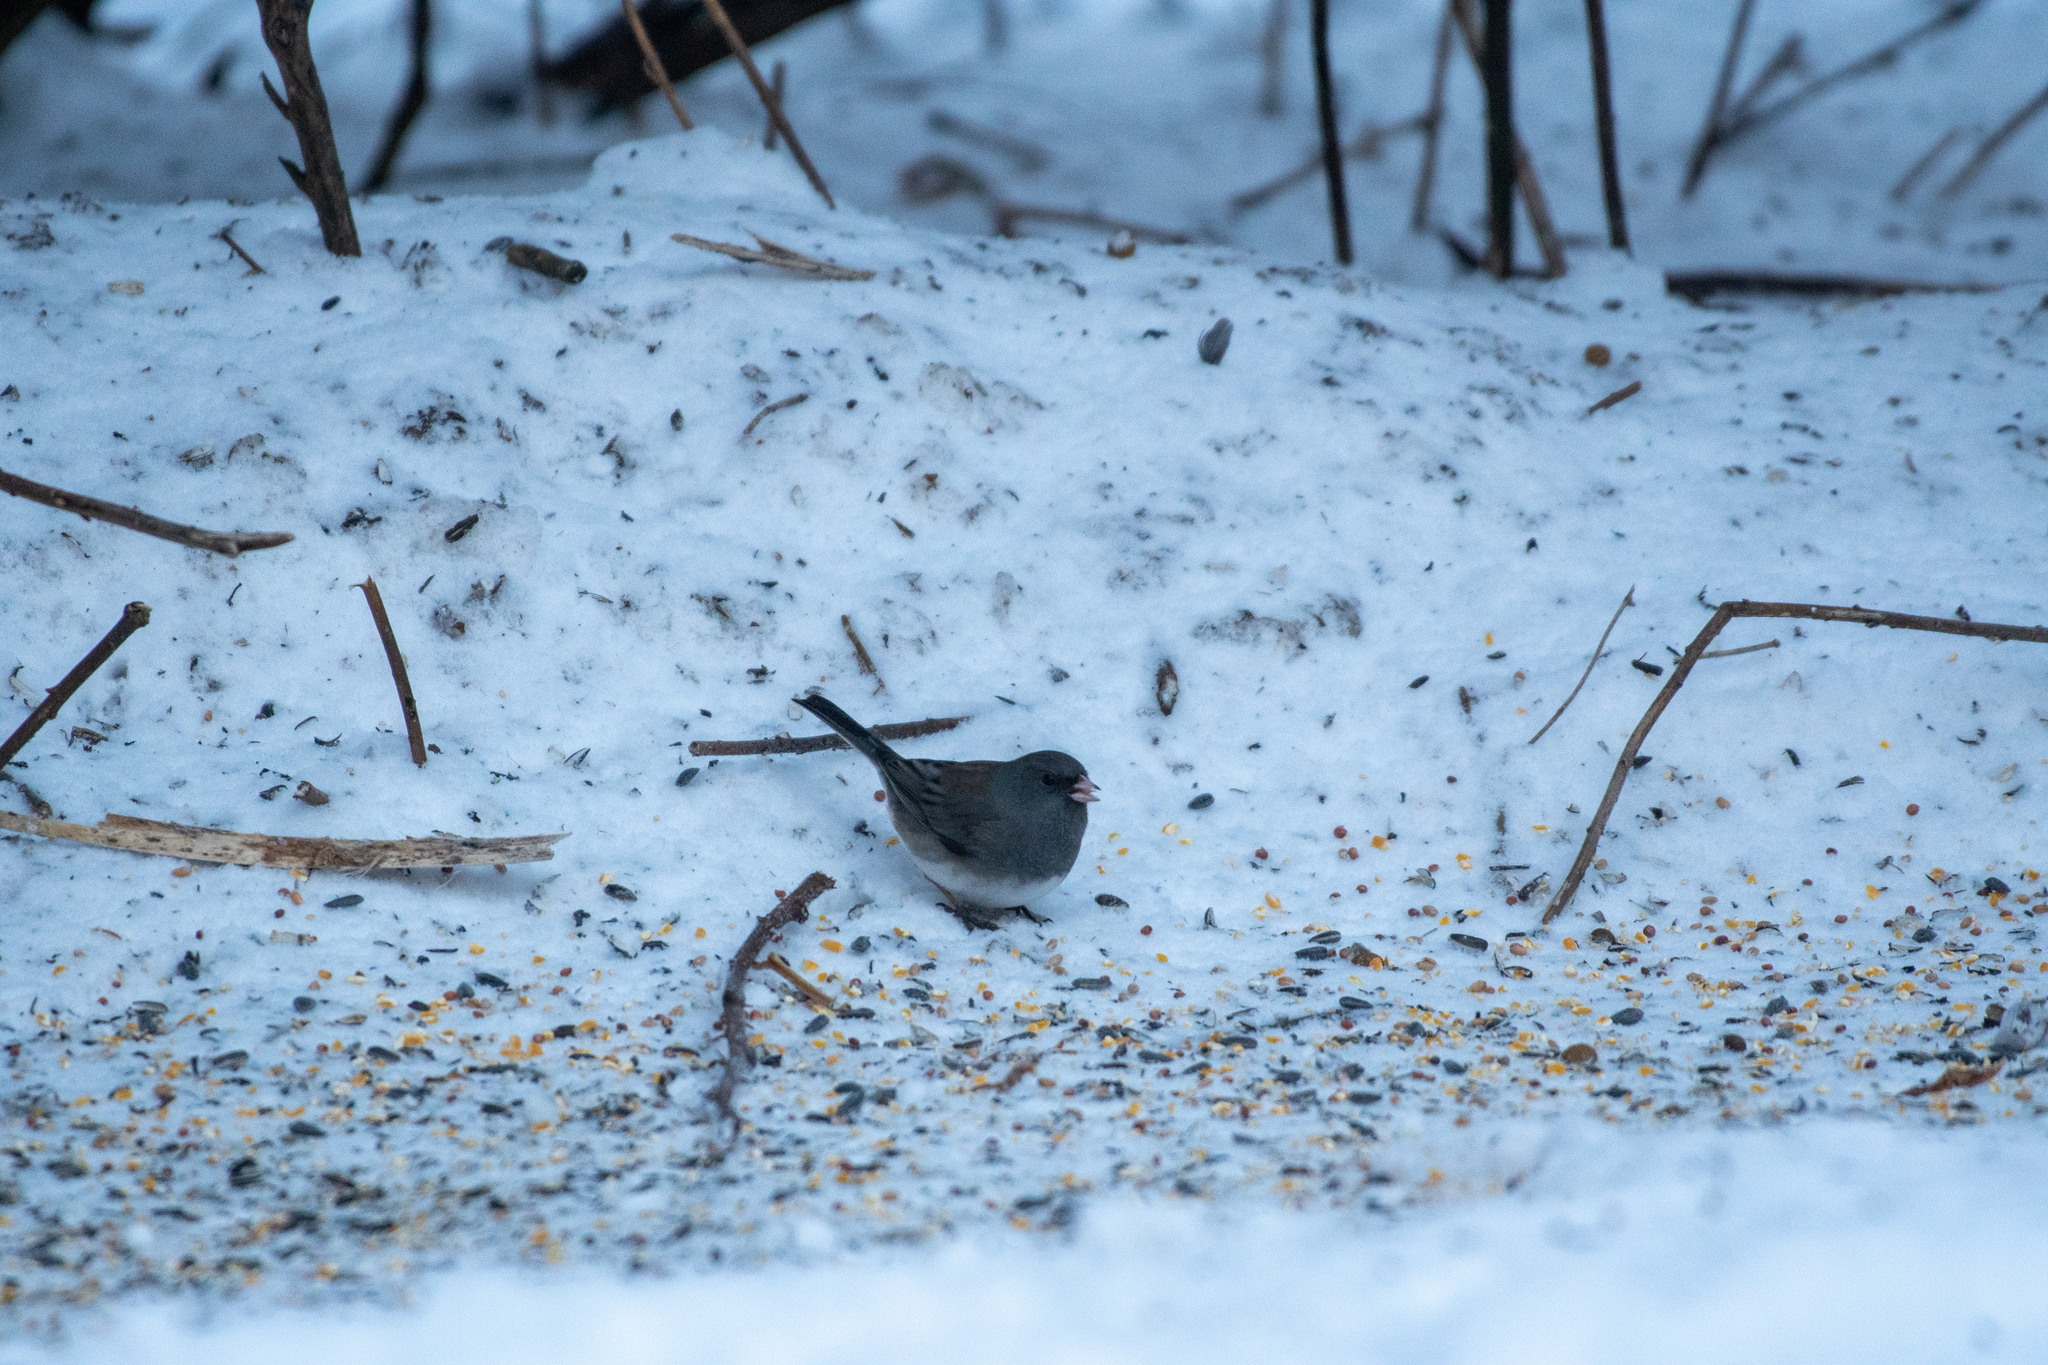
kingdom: Animalia
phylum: Chordata
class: Aves
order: Passeriformes
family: Passerellidae
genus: Junco
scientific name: Junco hyemalis
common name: Dark-eyed junco
